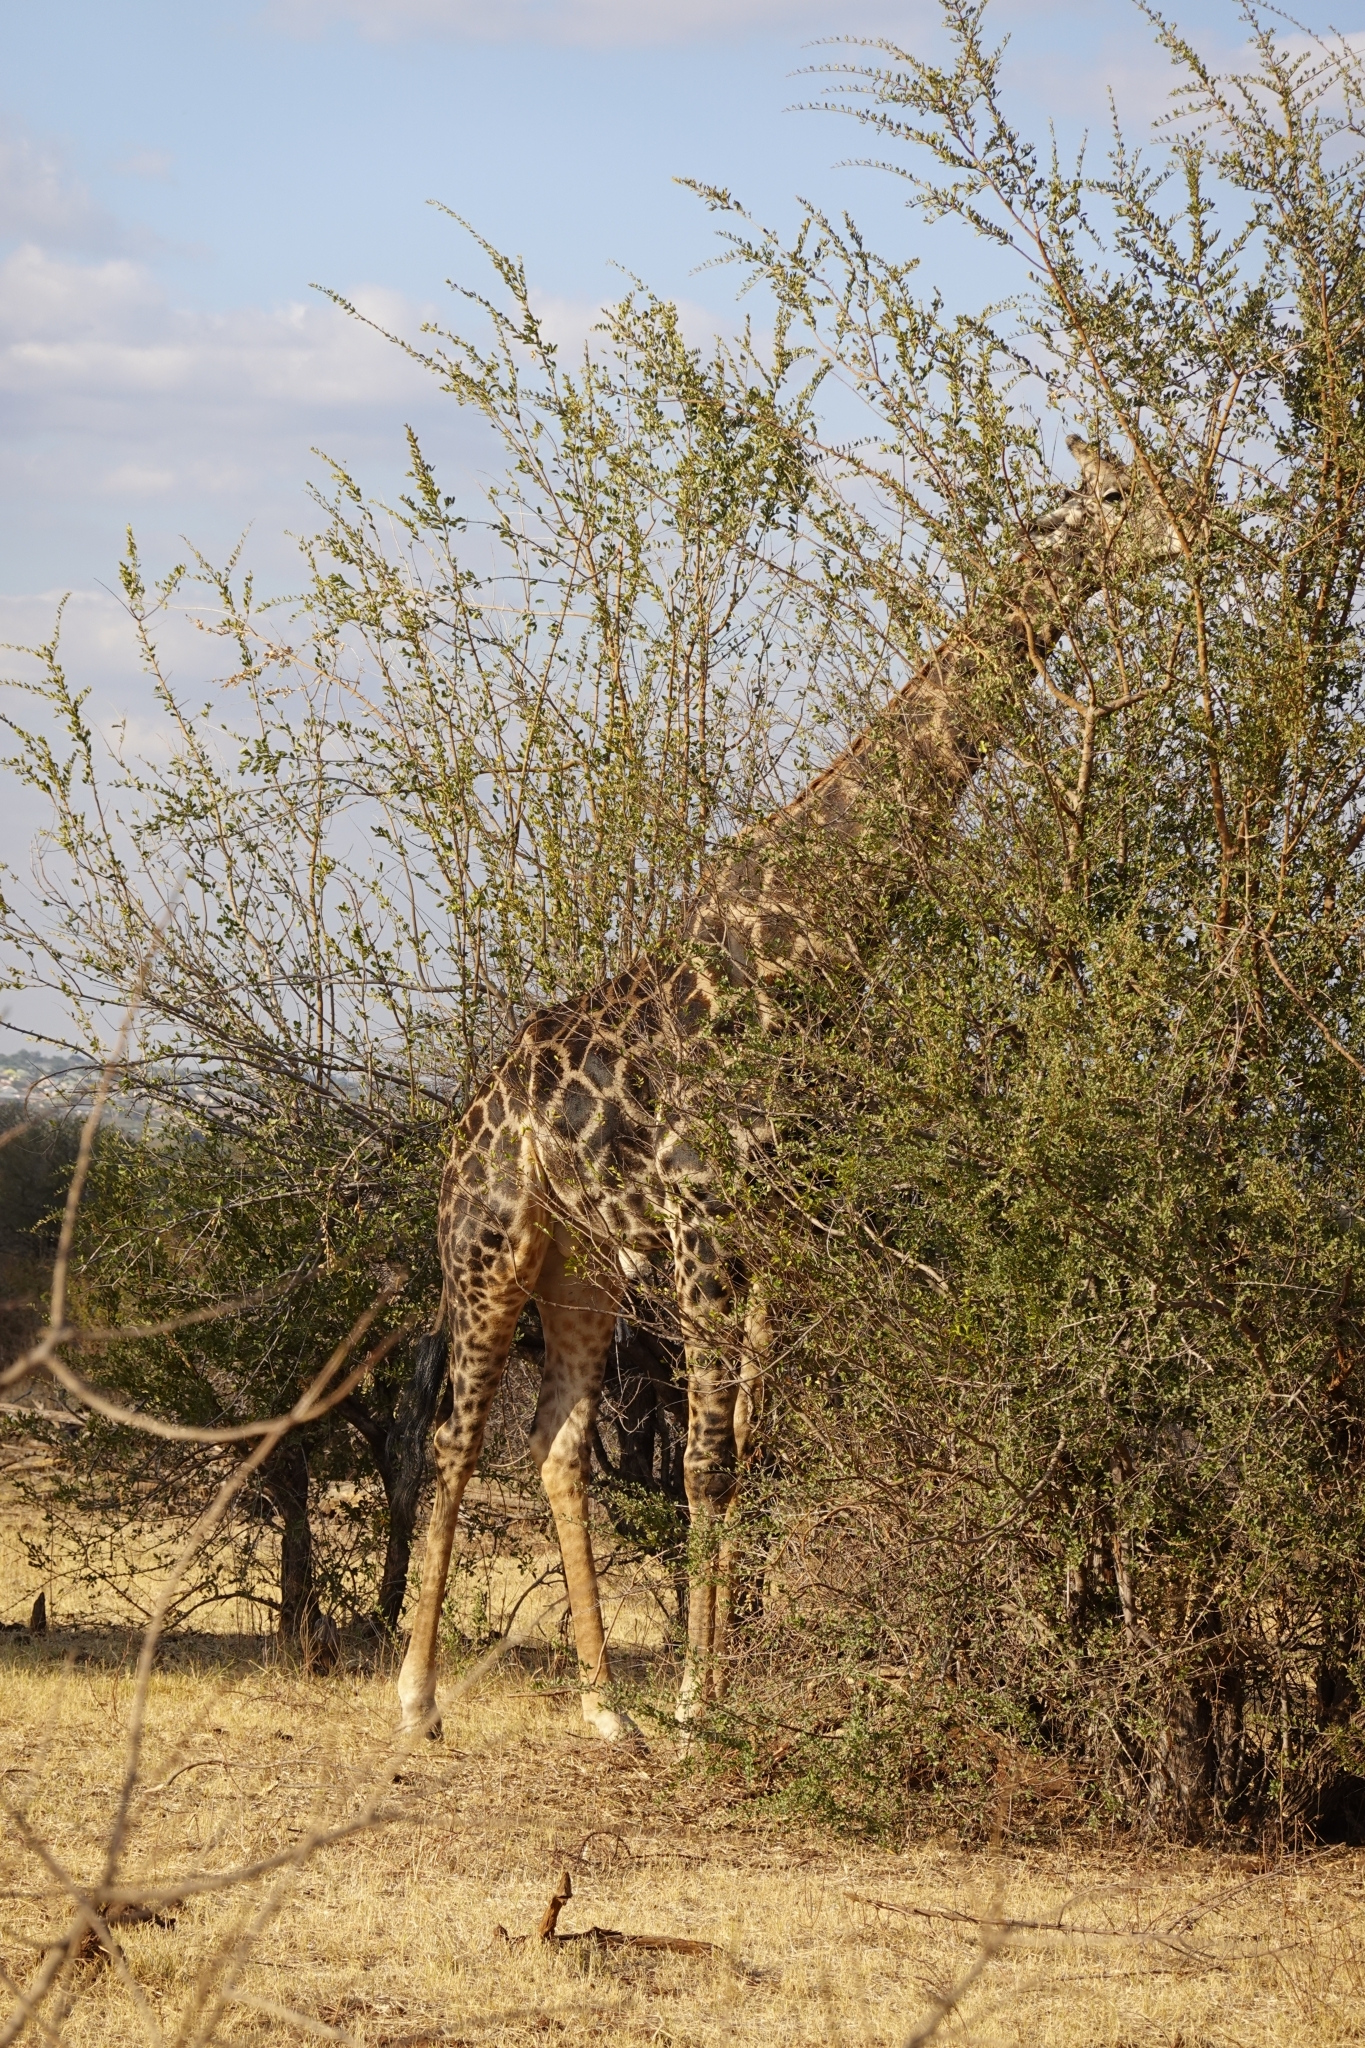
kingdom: Animalia
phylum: Chordata
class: Mammalia
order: Artiodactyla
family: Giraffidae
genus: Giraffa
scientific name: Giraffa giraffa
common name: Southern giraffe
